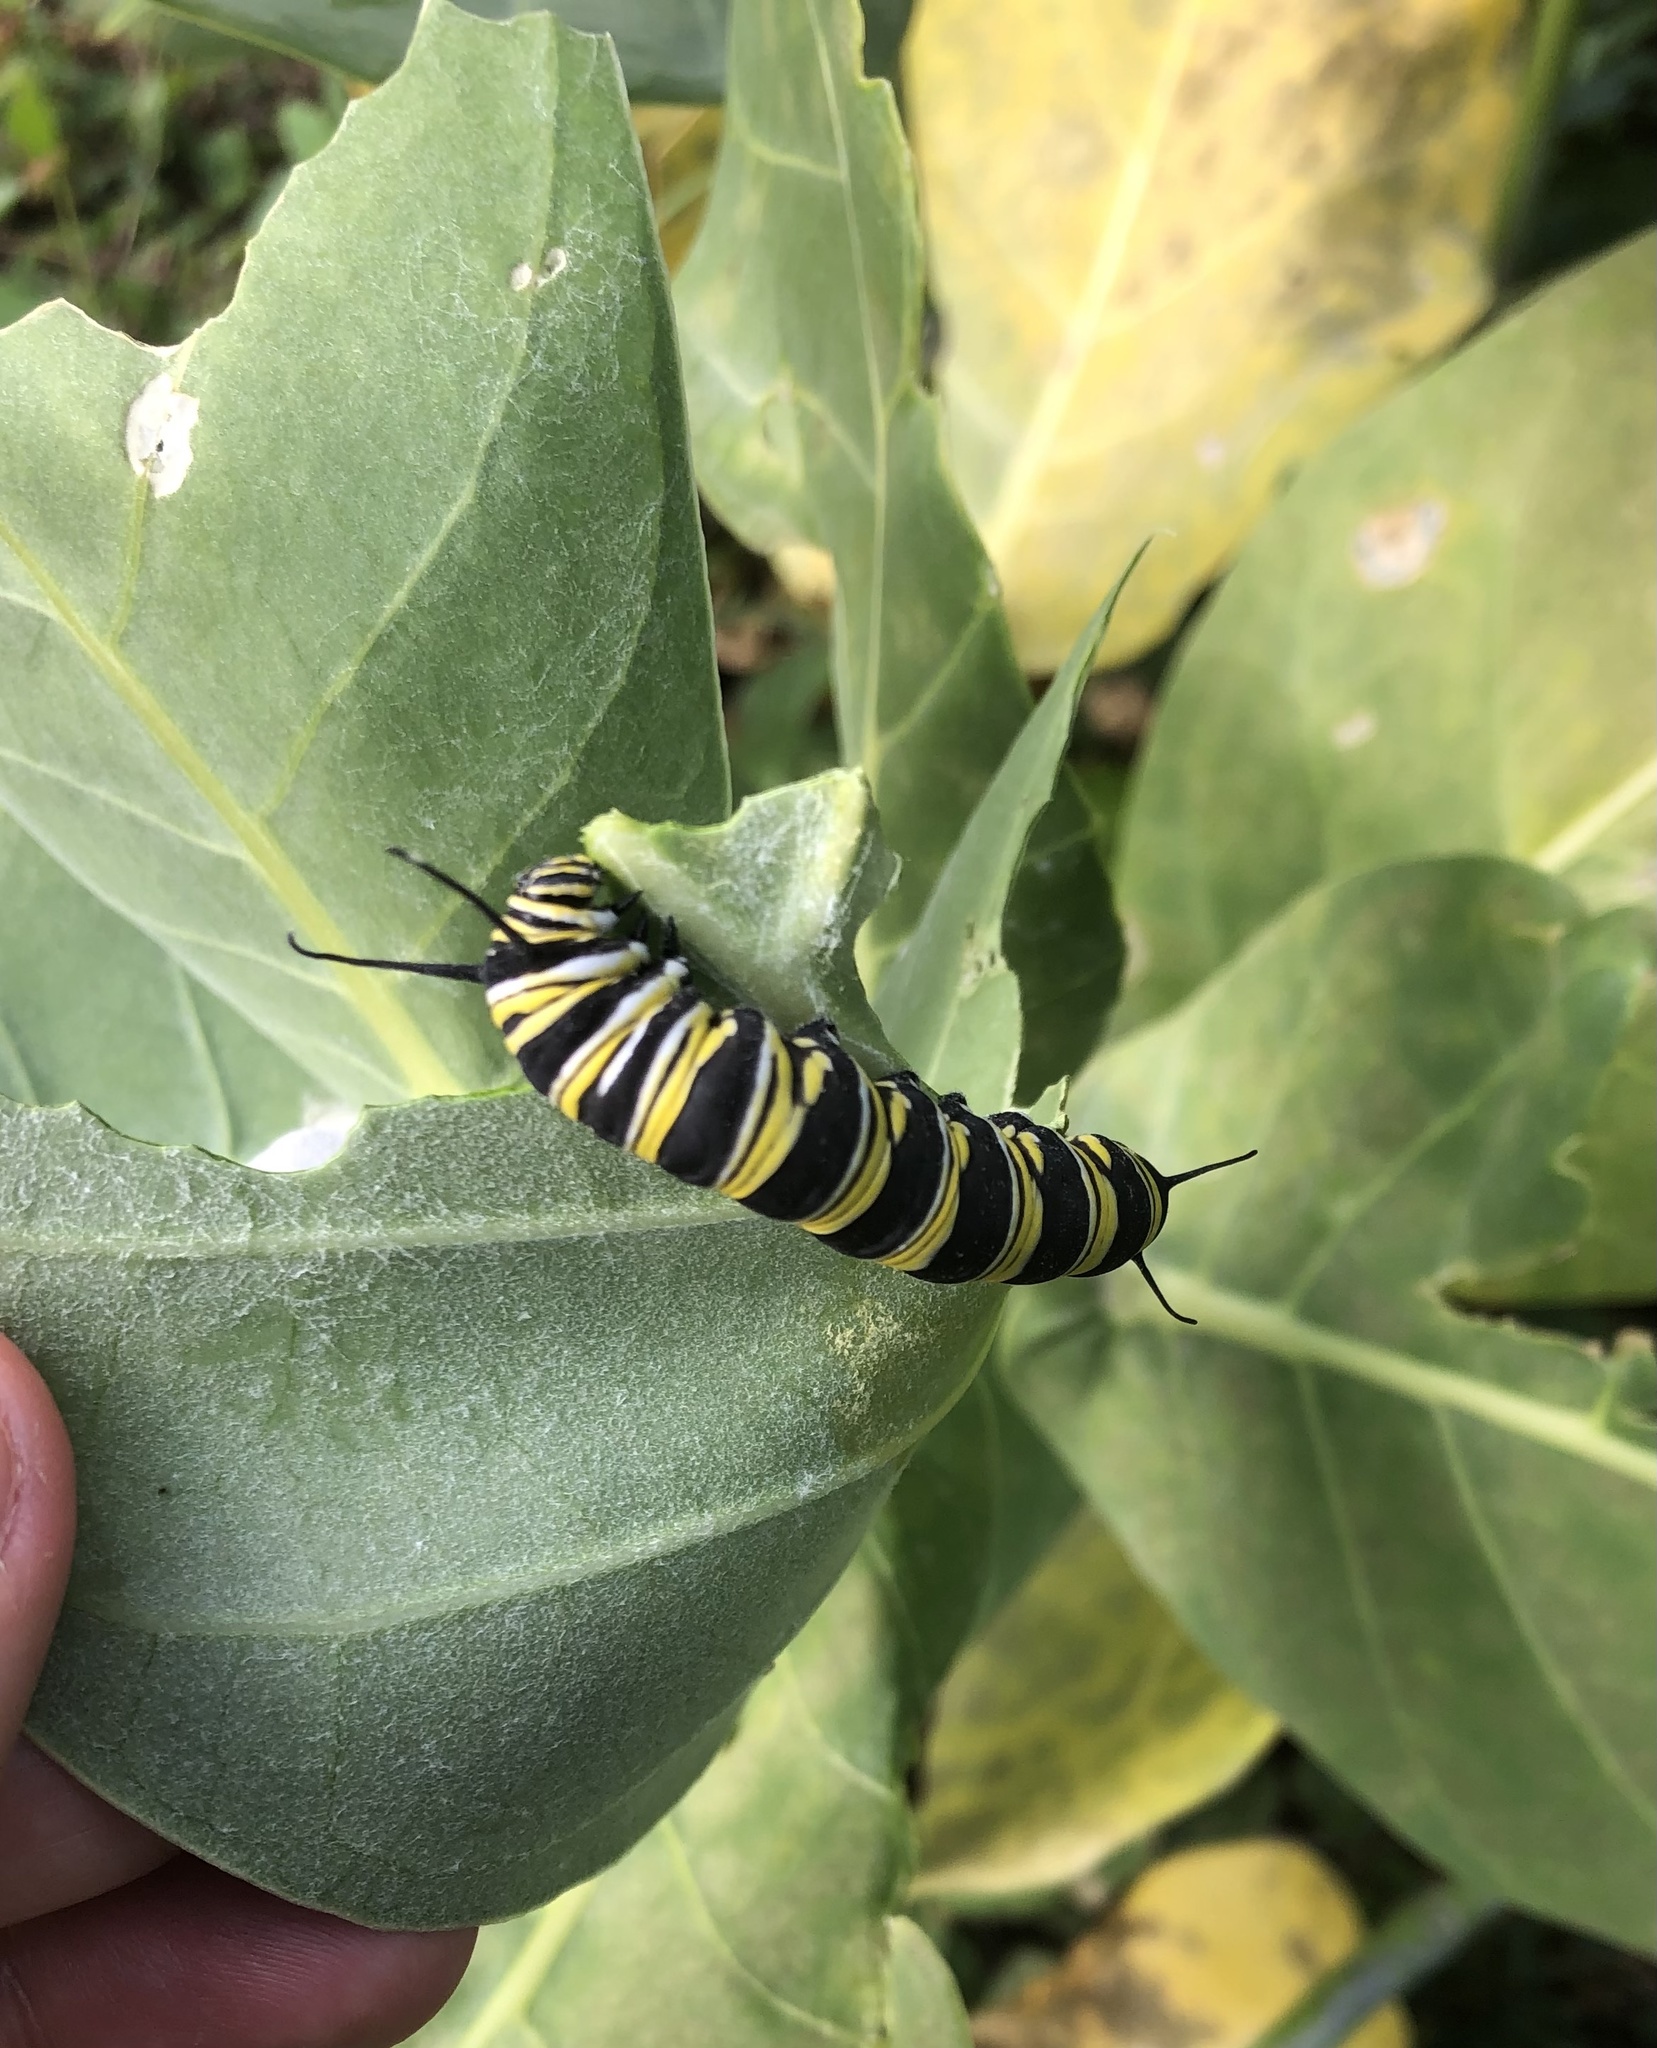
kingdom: Animalia
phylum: Arthropoda
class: Insecta
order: Lepidoptera
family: Nymphalidae
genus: Danaus
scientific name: Danaus plexippus
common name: Monarch
